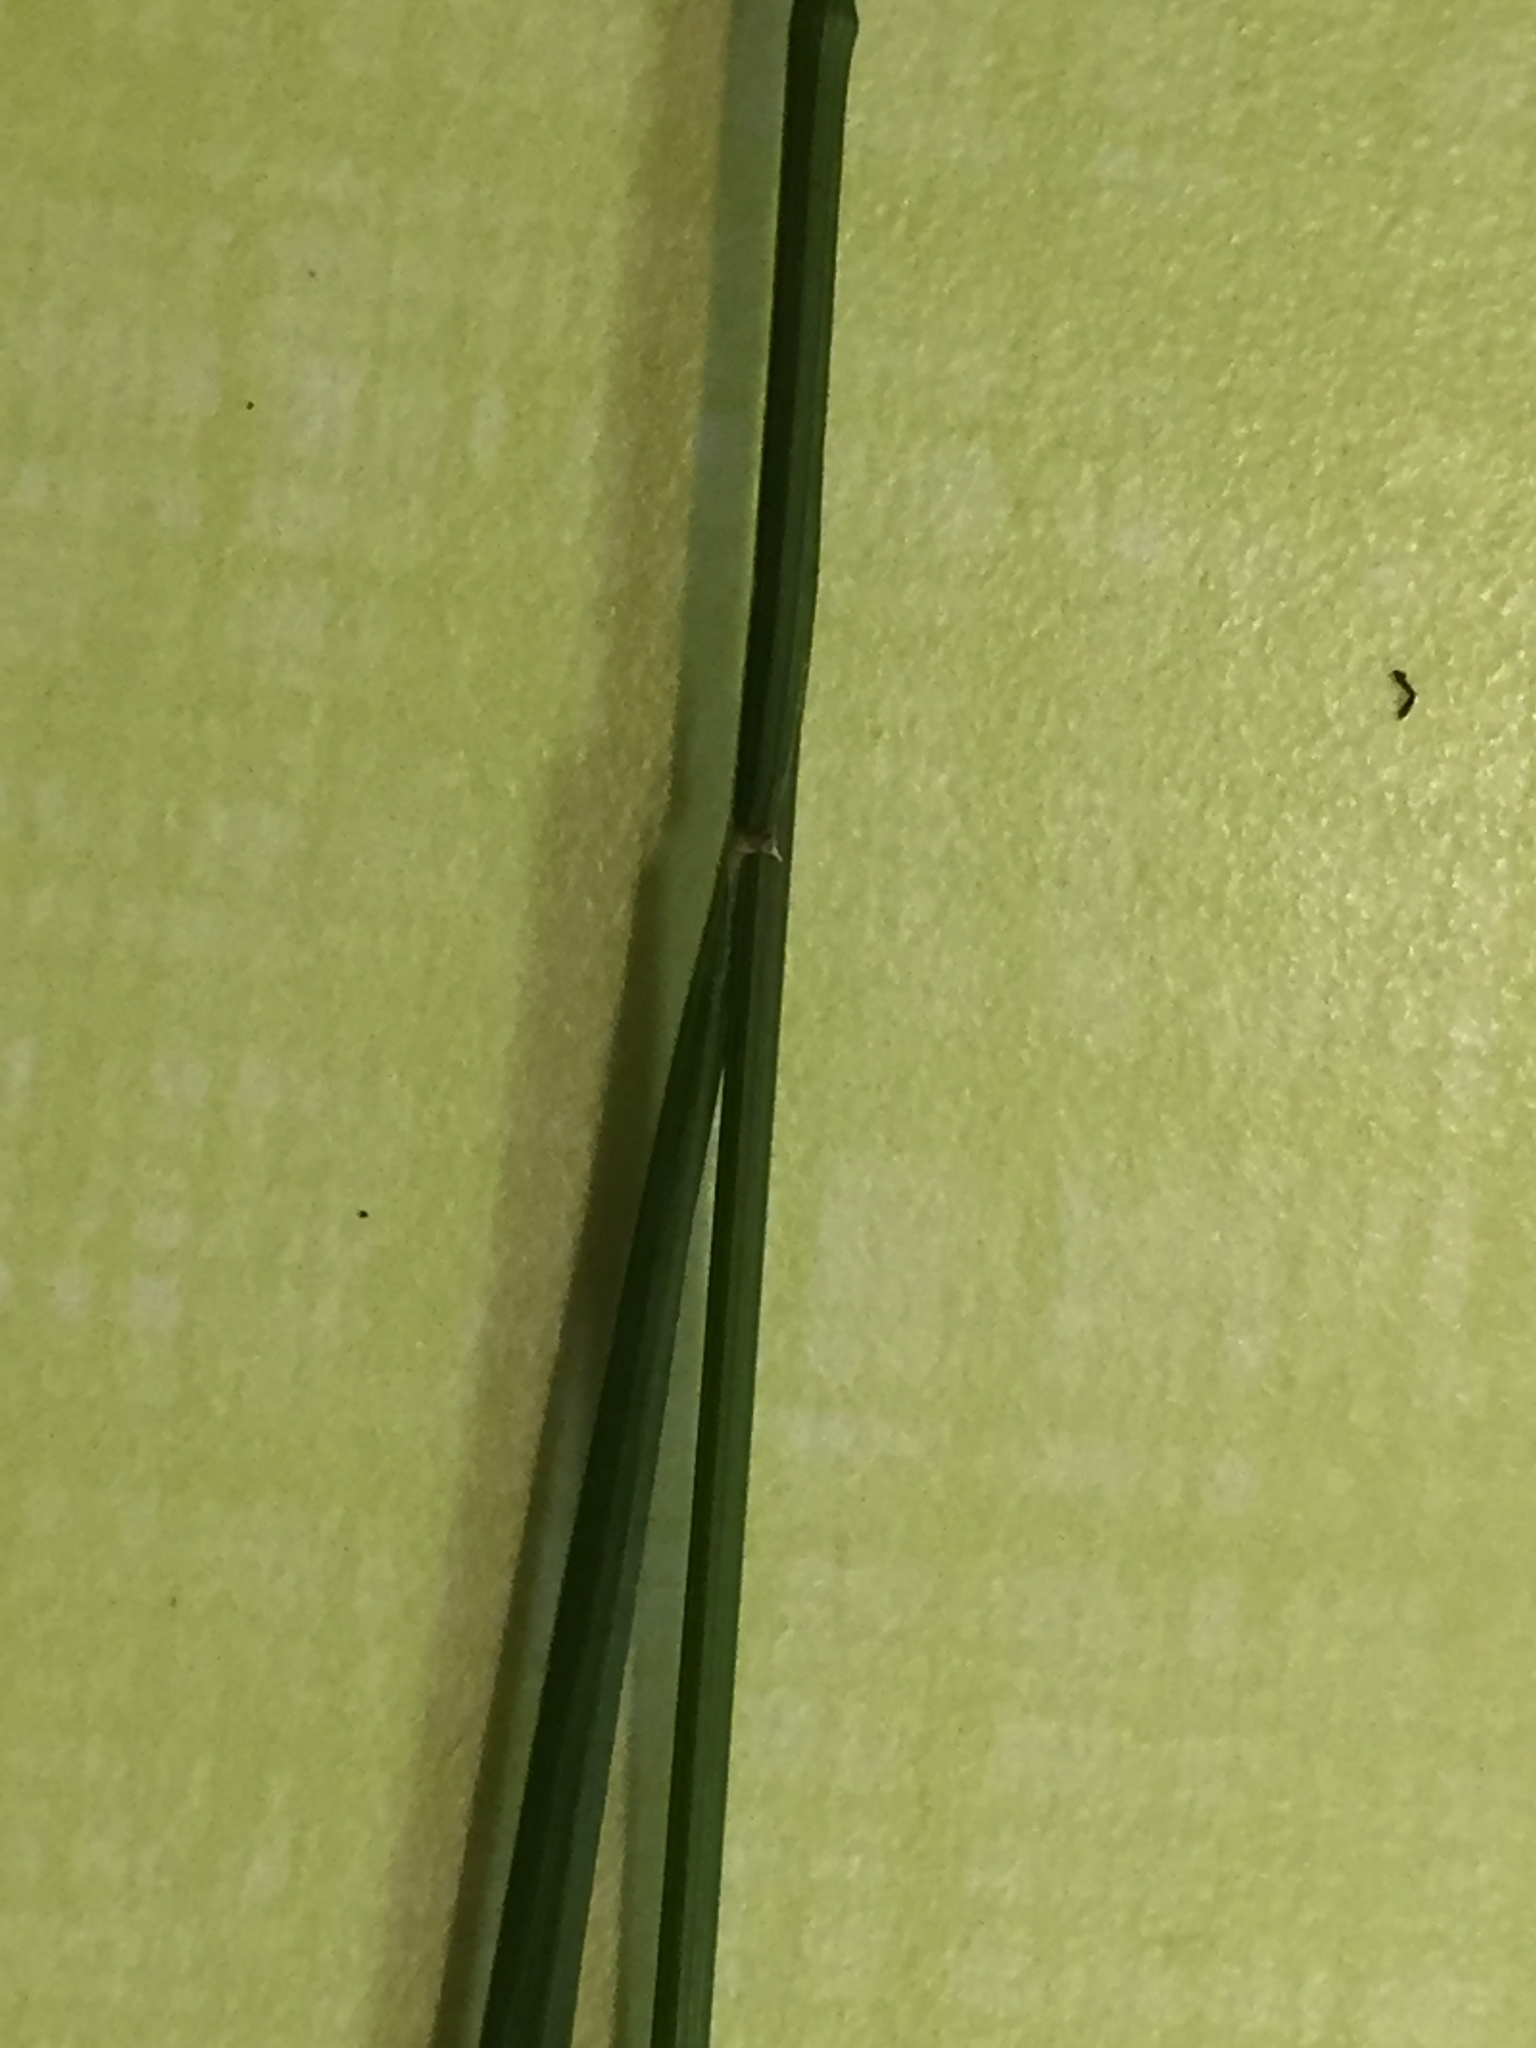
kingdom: Plantae
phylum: Tracheophyta
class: Liliopsida
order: Poales
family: Poaceae
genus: Melica
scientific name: Melica mutica
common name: Two-flower melic
